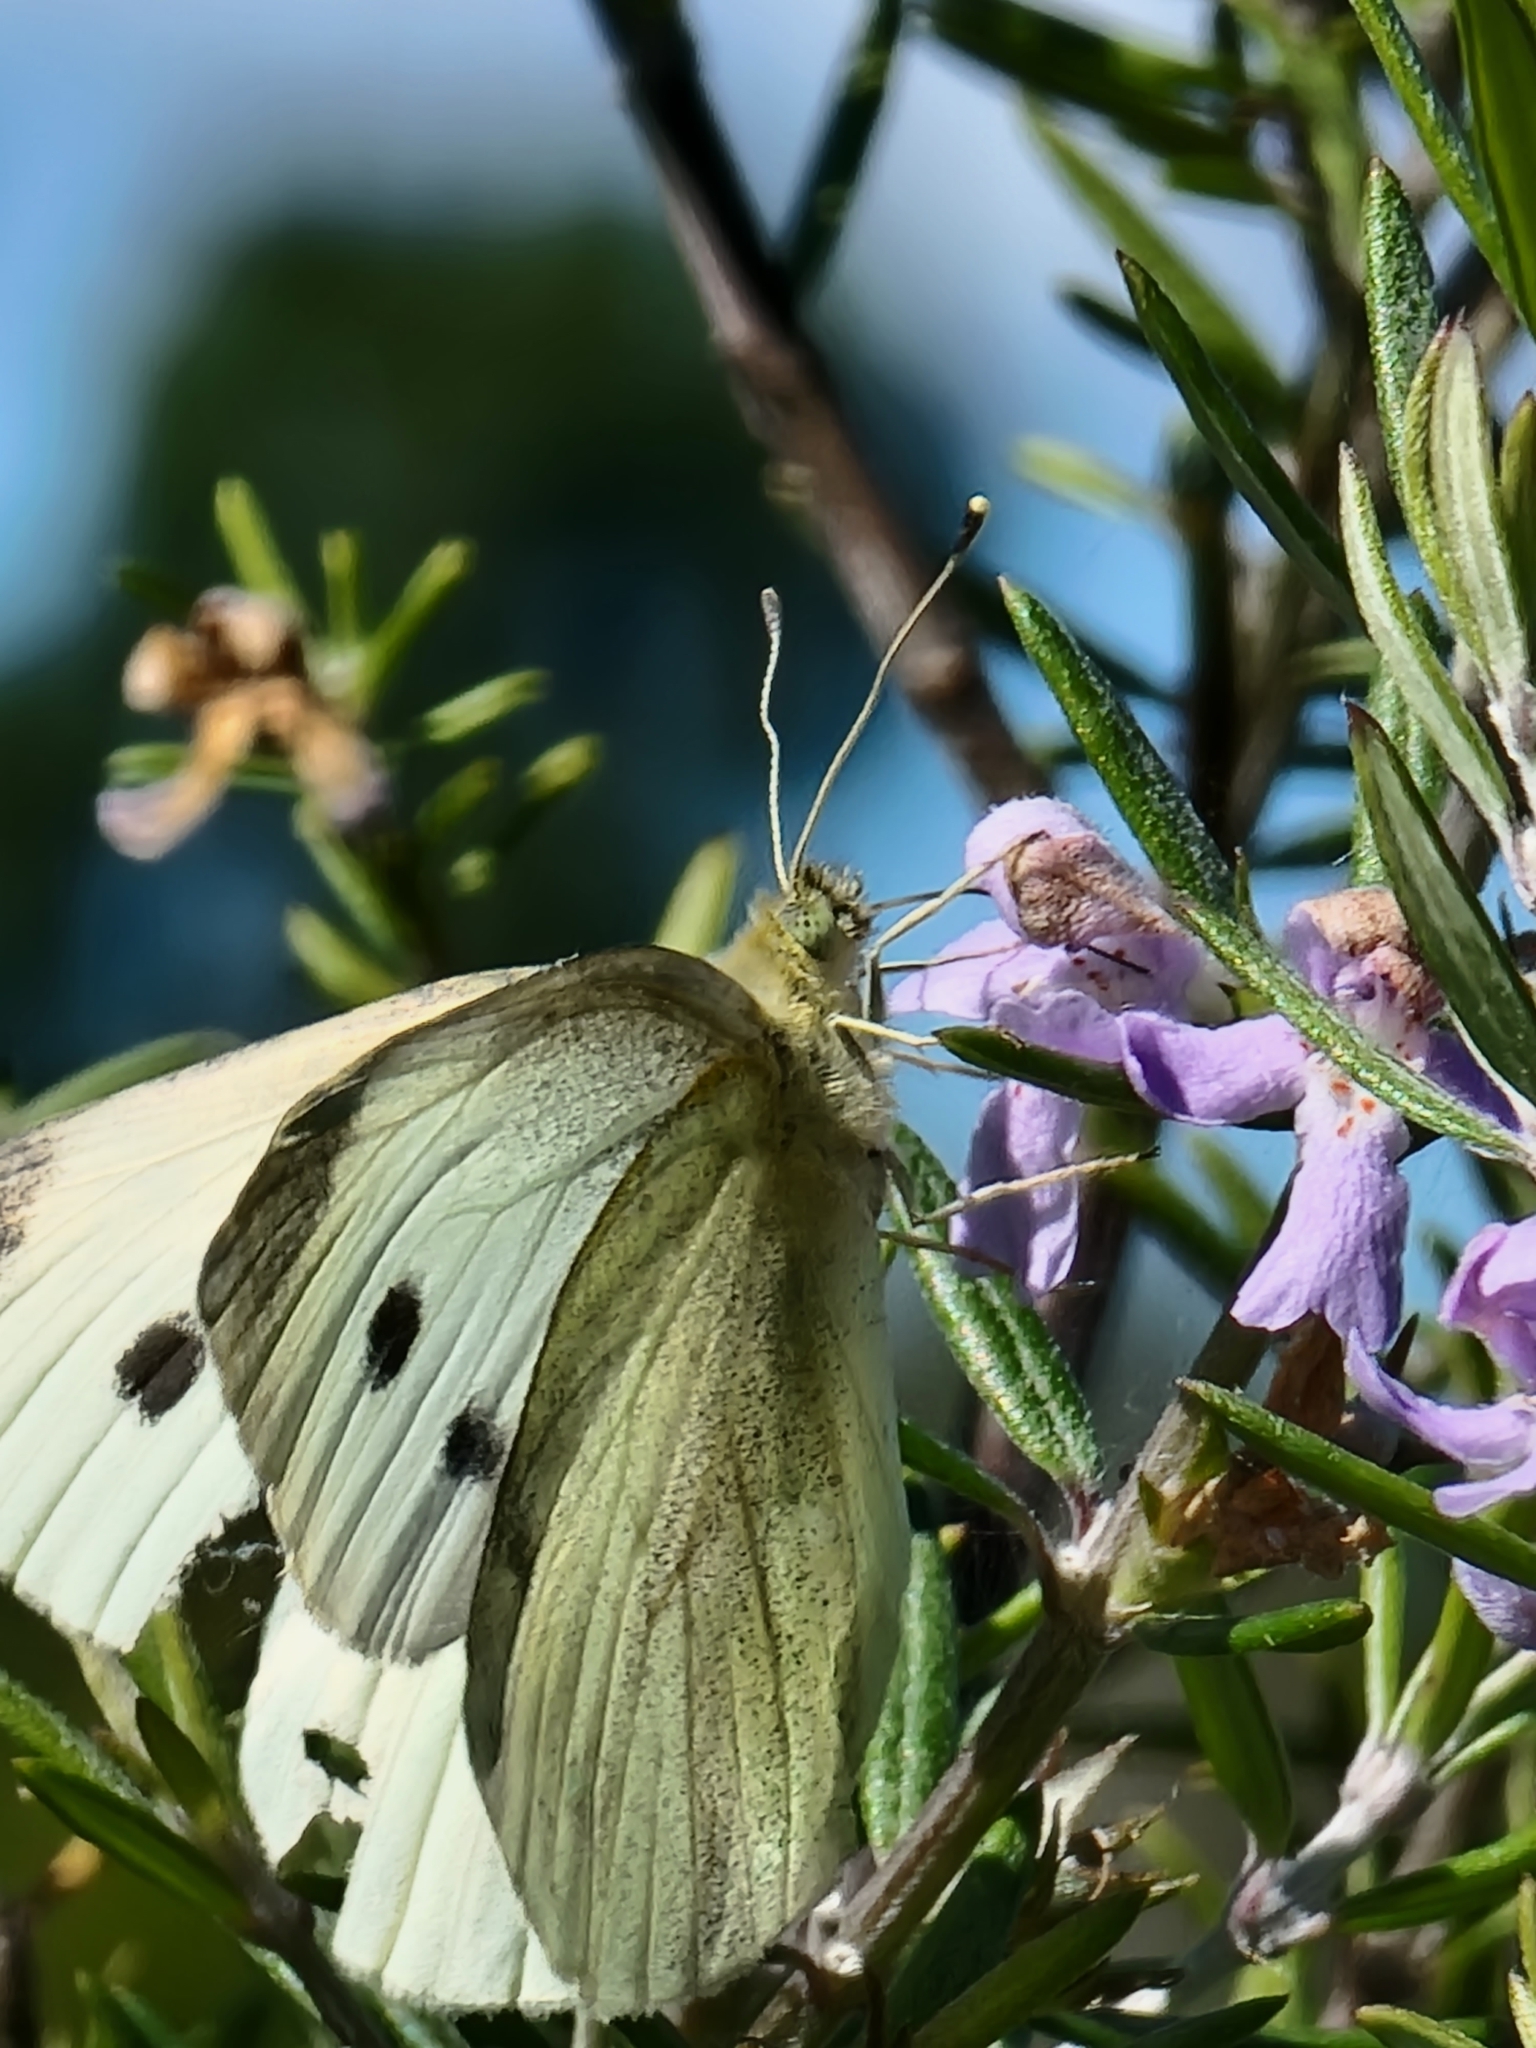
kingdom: Animalia
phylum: Arthropoda
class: Insecta
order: Lepidoptera
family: Pieridae
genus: Pieris
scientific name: Pieris rapae
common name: Small white
